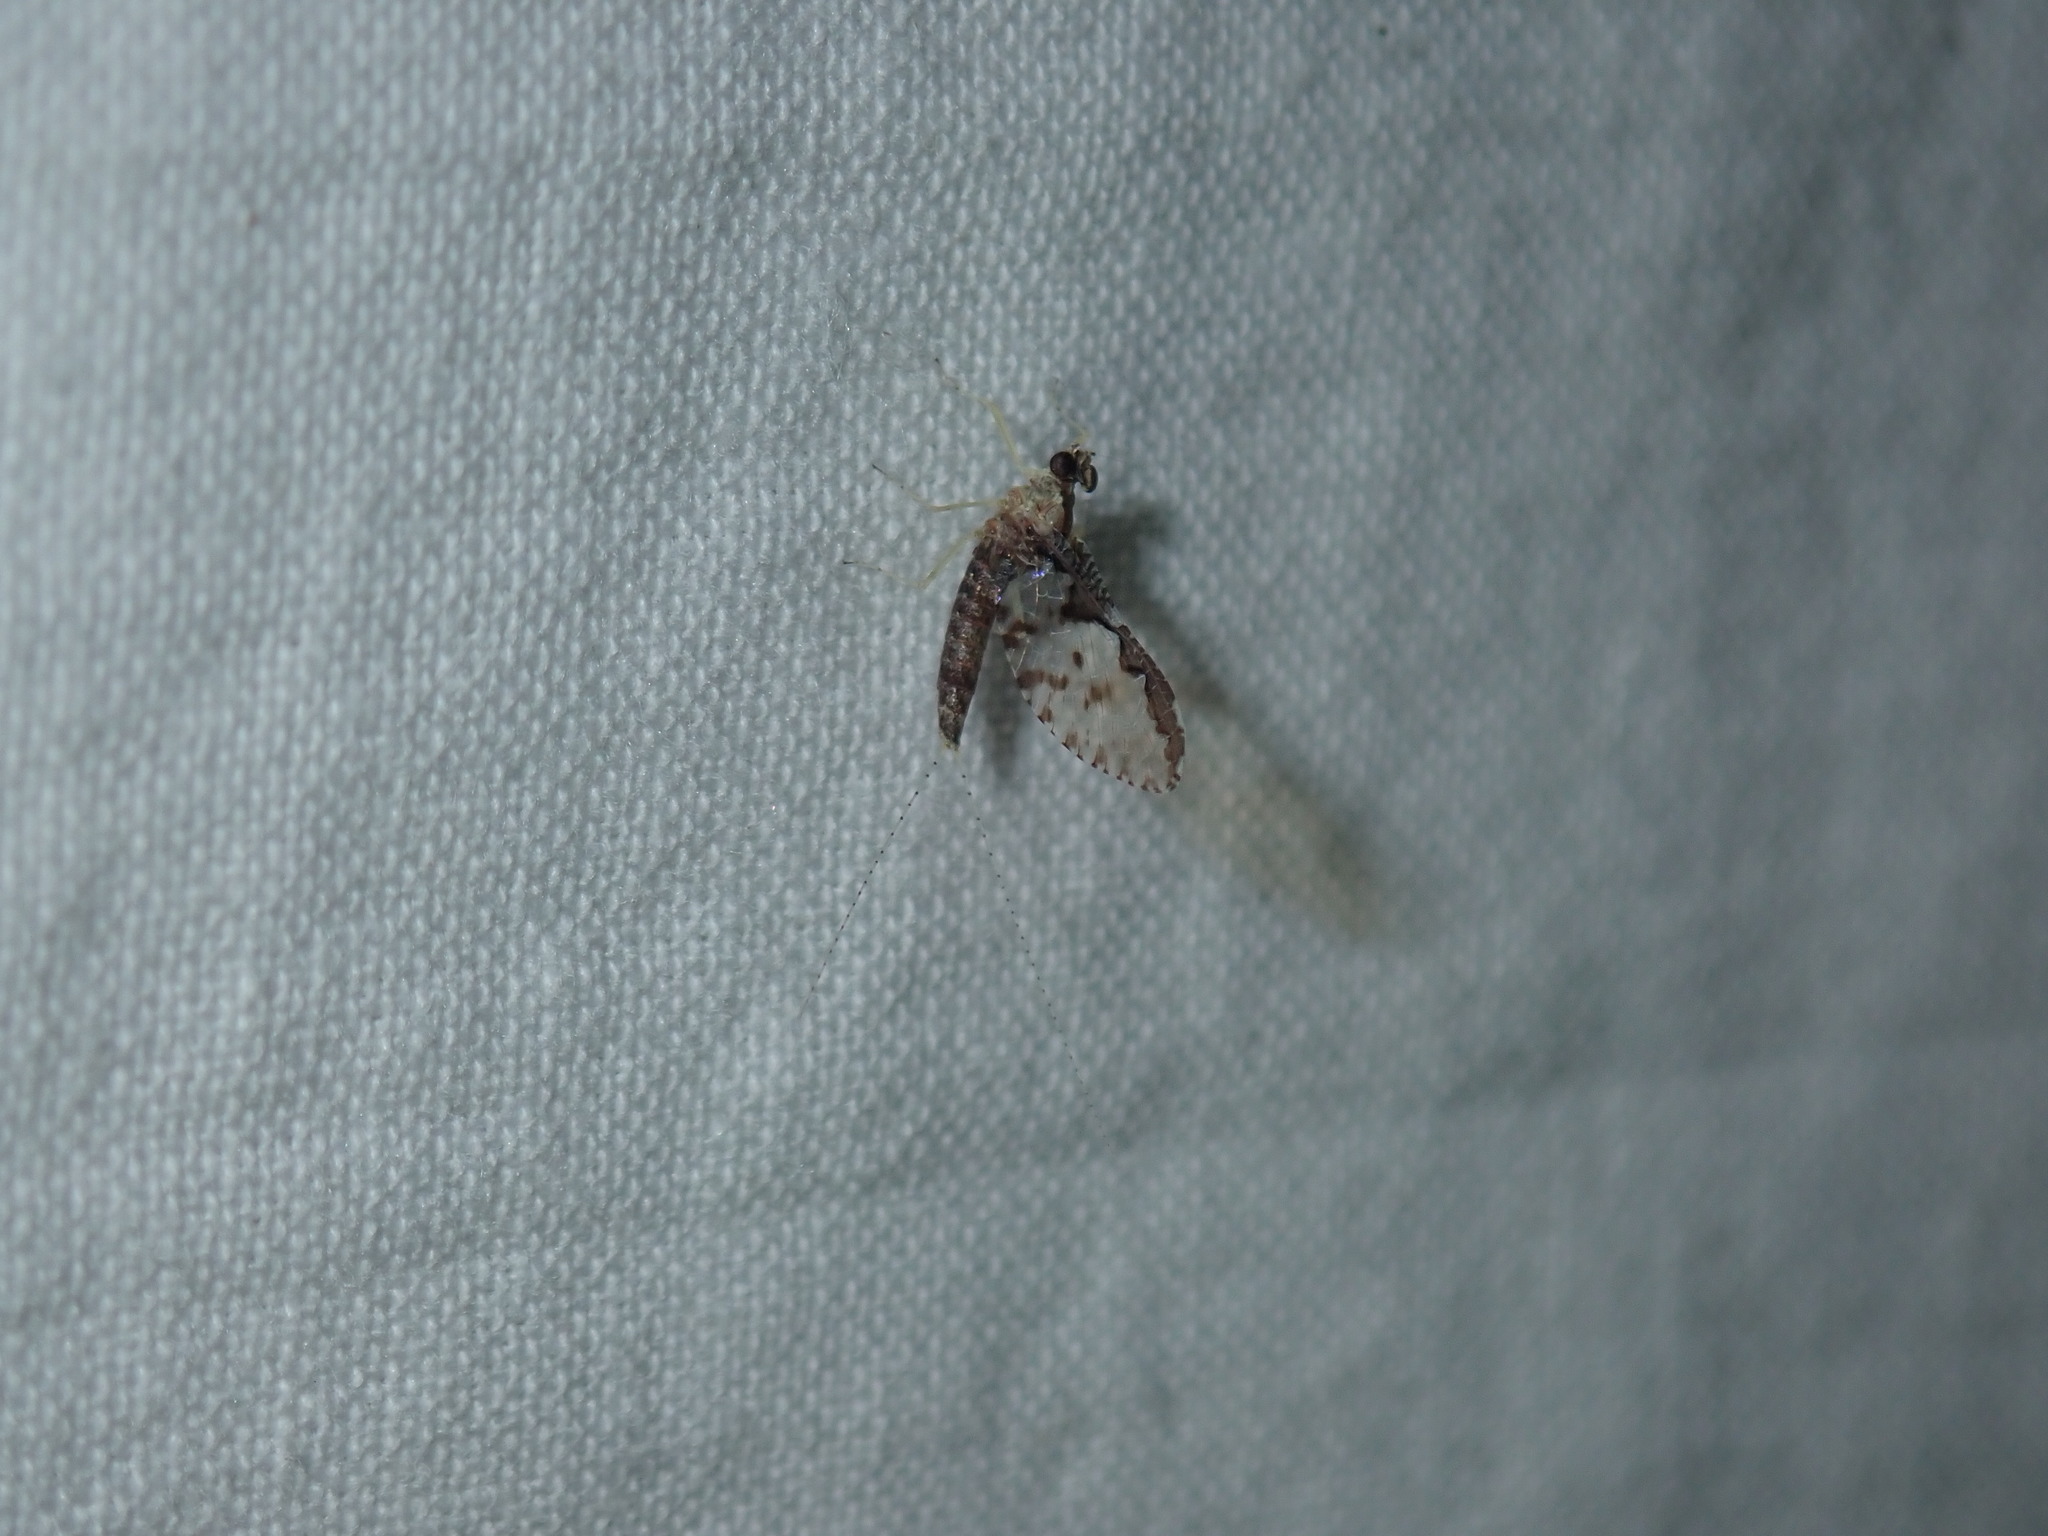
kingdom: Animalia
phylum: Arthropoda
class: Insecta
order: Ephemeroptera
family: Baetidae
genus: Callibaetis
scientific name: Callibaetis ferrugineus
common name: Red speckled dun
